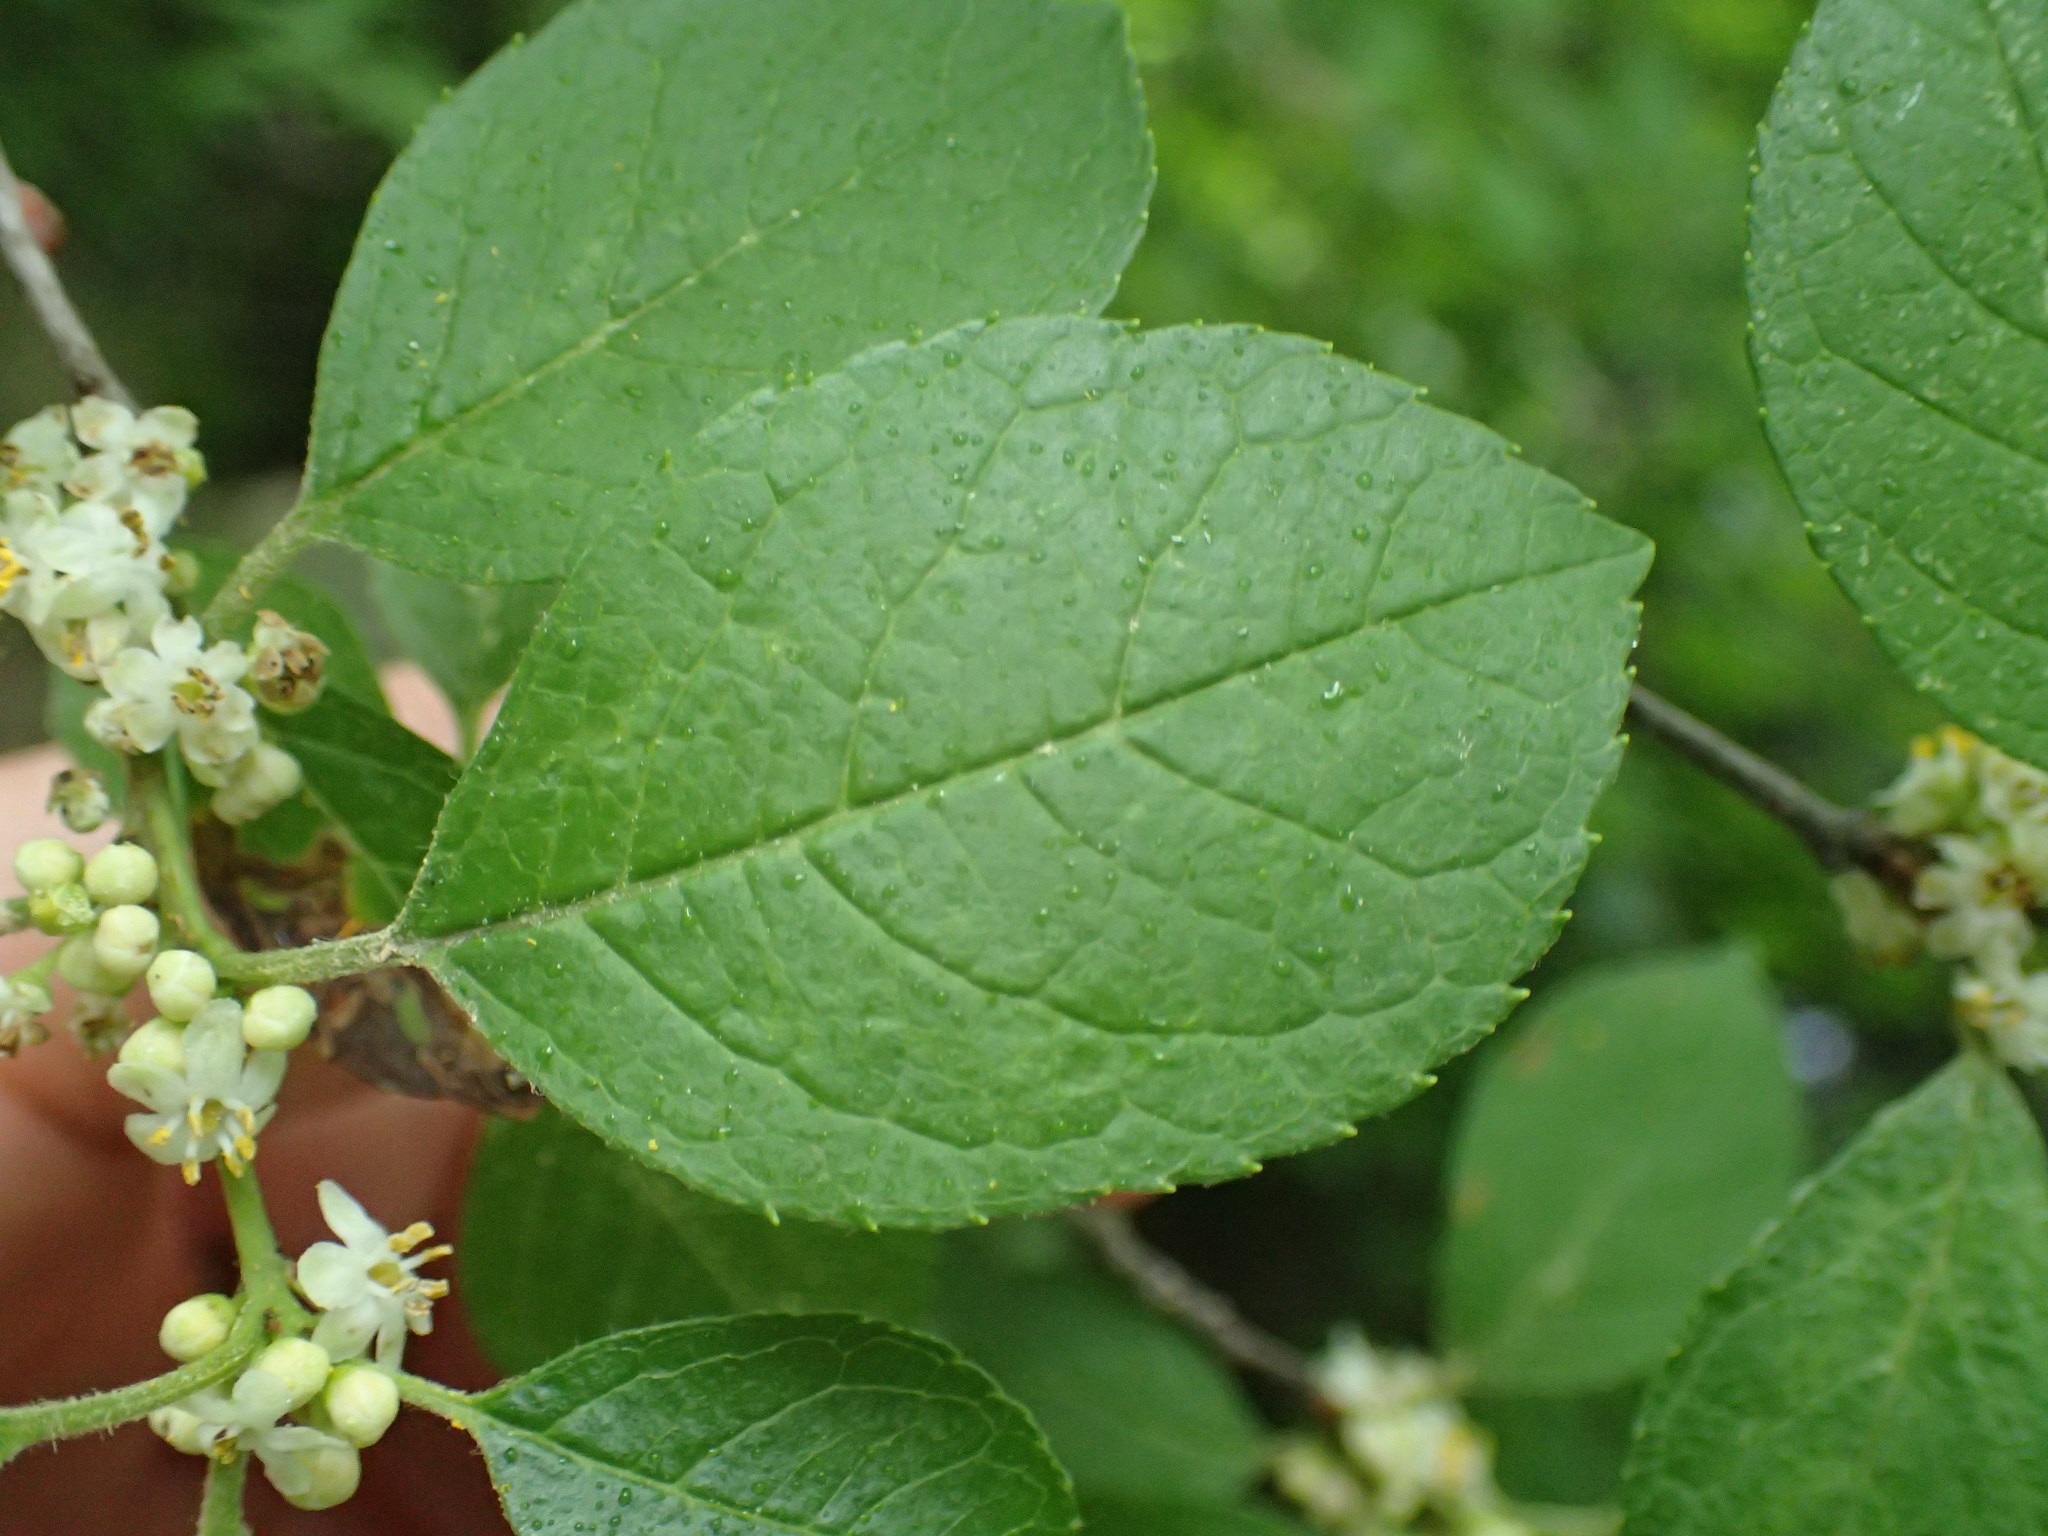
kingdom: Plantae
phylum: Tracheophyta
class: Magnoliopsida
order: Aquifoliales
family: Aquifoliaceae
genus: Ilex
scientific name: Ilex verticillata
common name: Virginia winterberry
